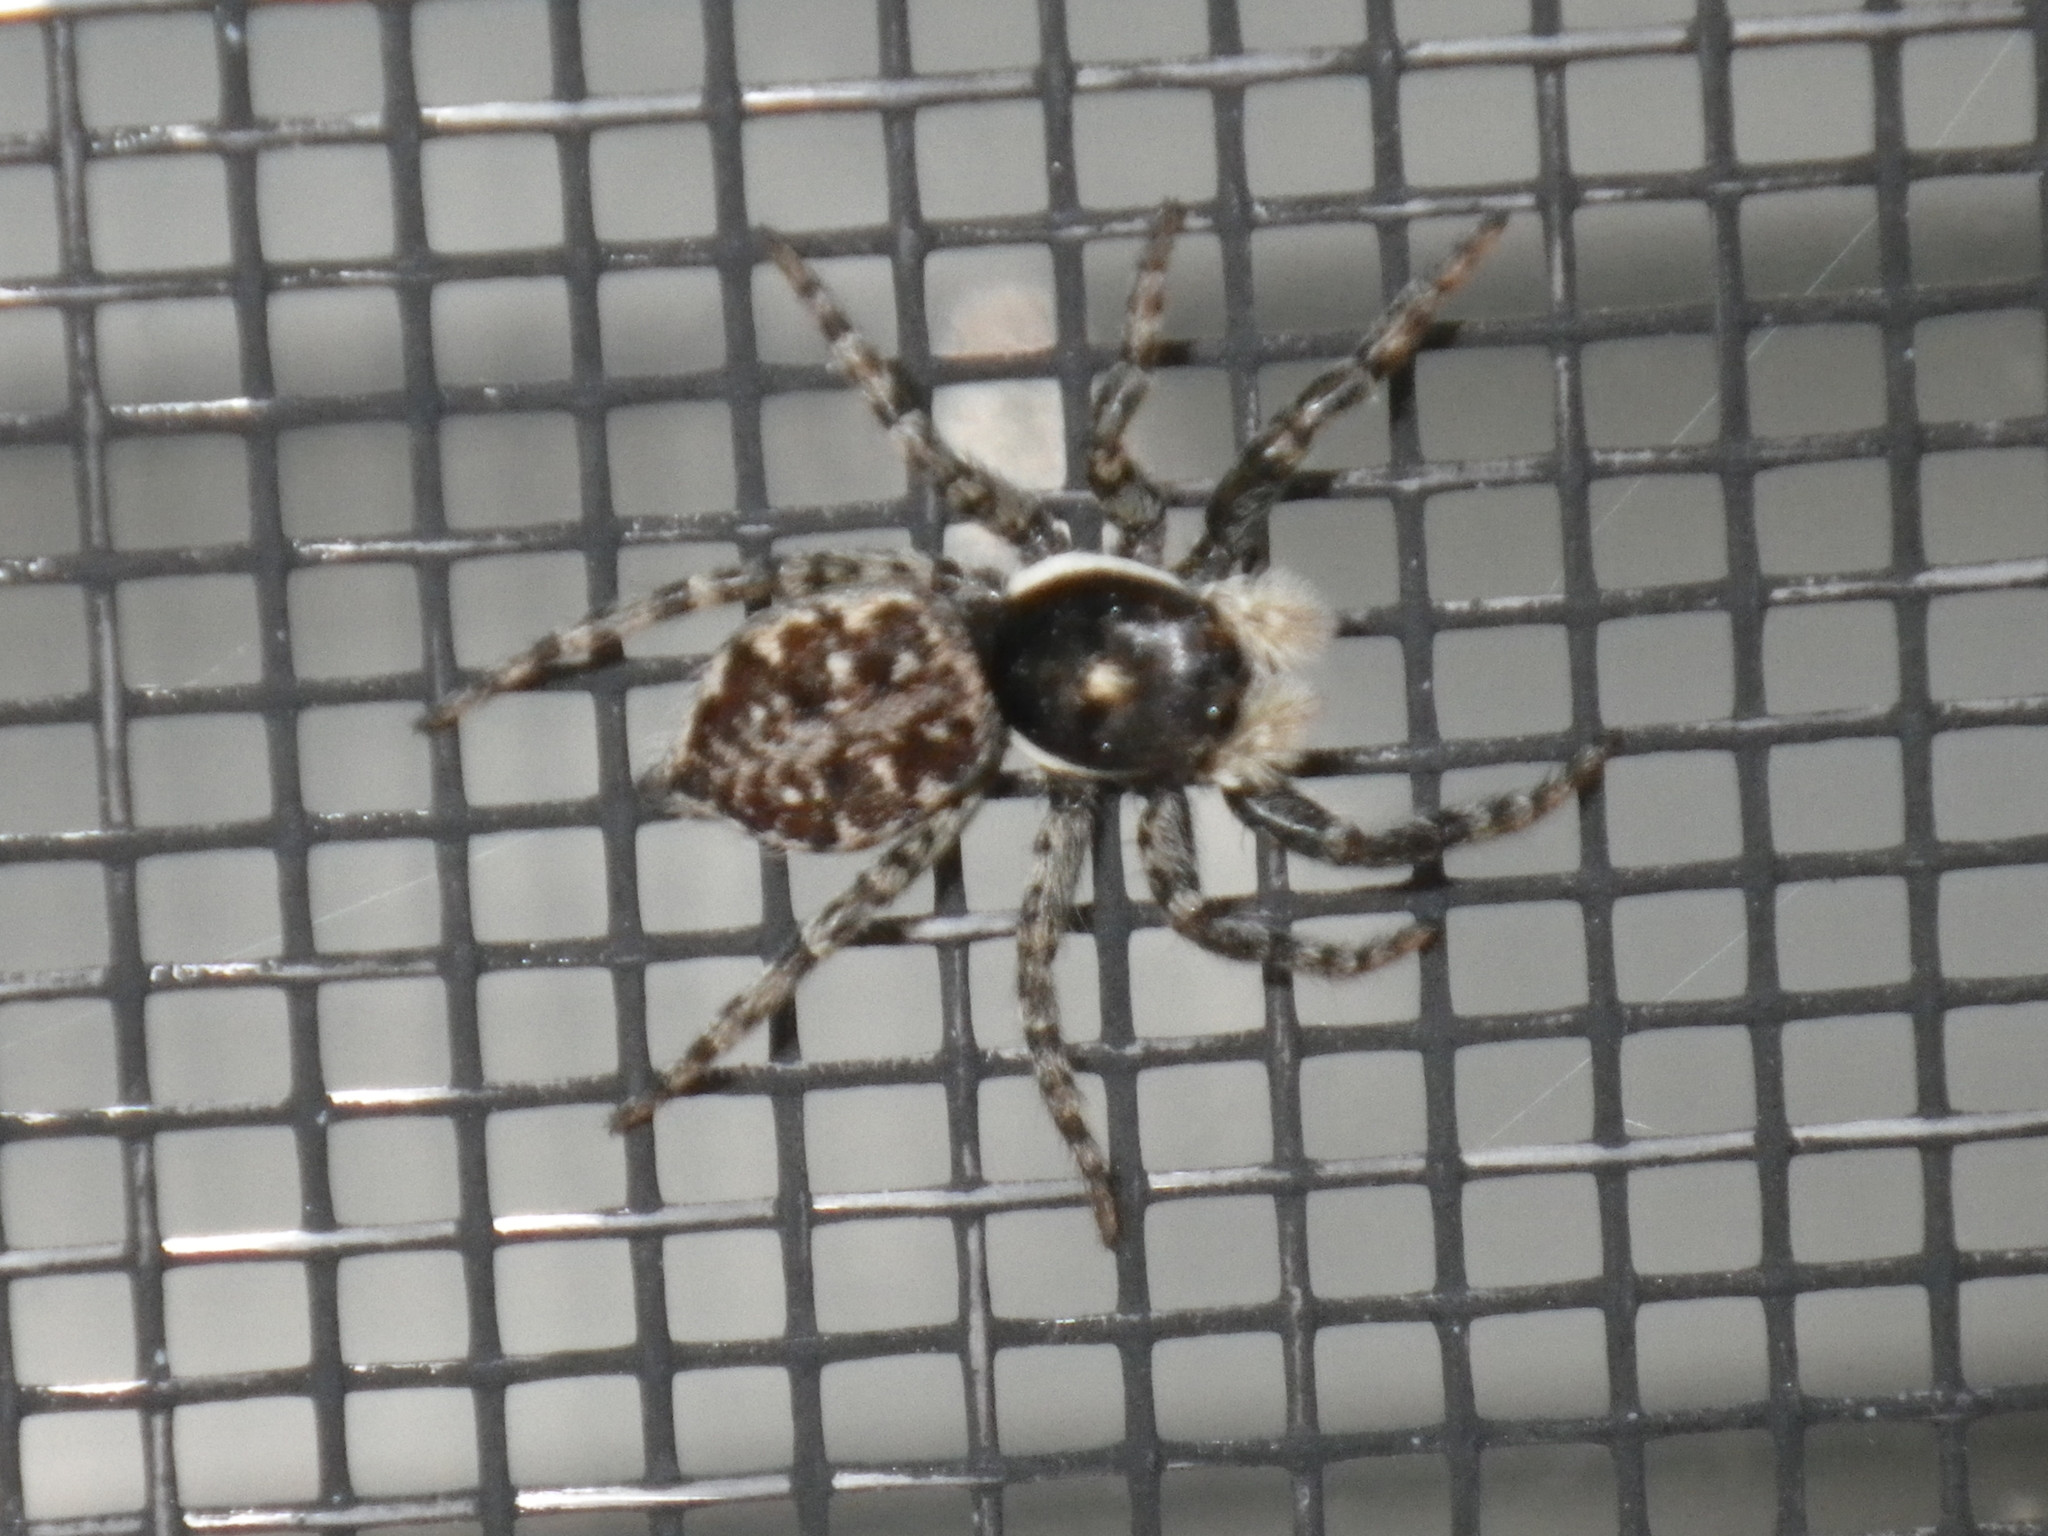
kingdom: Animalia
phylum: Arthropoda
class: Arachnida
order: Araneae
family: Salticidae
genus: Menemerus
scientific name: Menemerus semilimbatus
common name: Jumping spider
